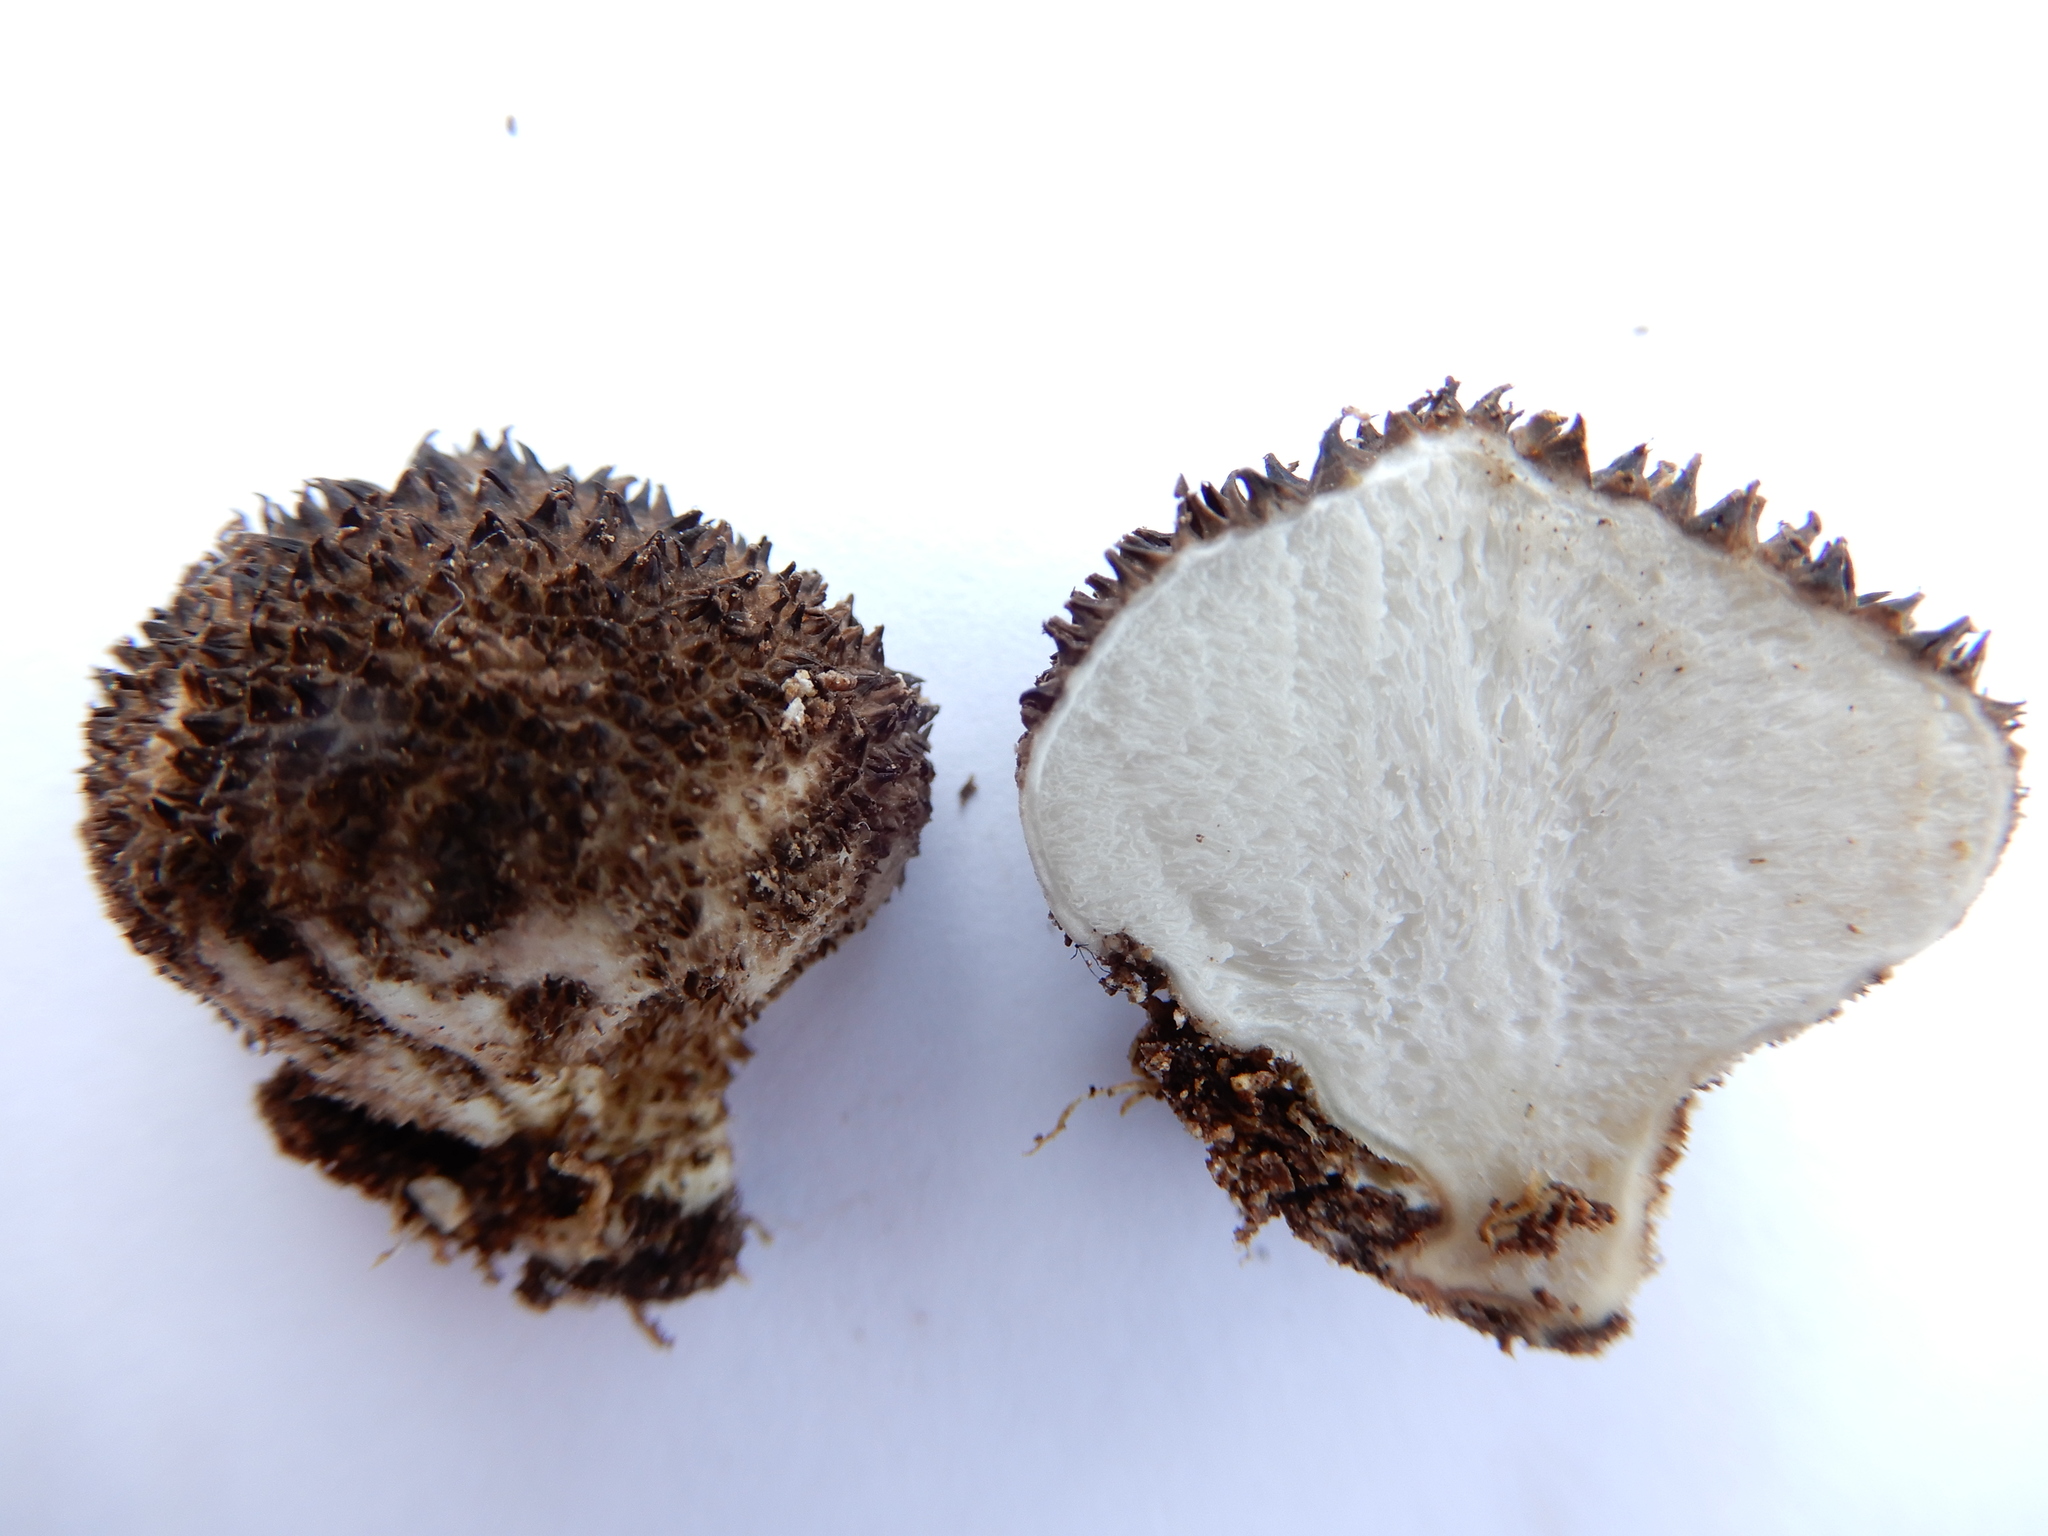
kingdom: Fungi
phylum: Basidiomycota
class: Agaricomycetes
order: Agaricales
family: Lycoperdaceae
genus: Lycoperdon
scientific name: Lycoperdon compactum
